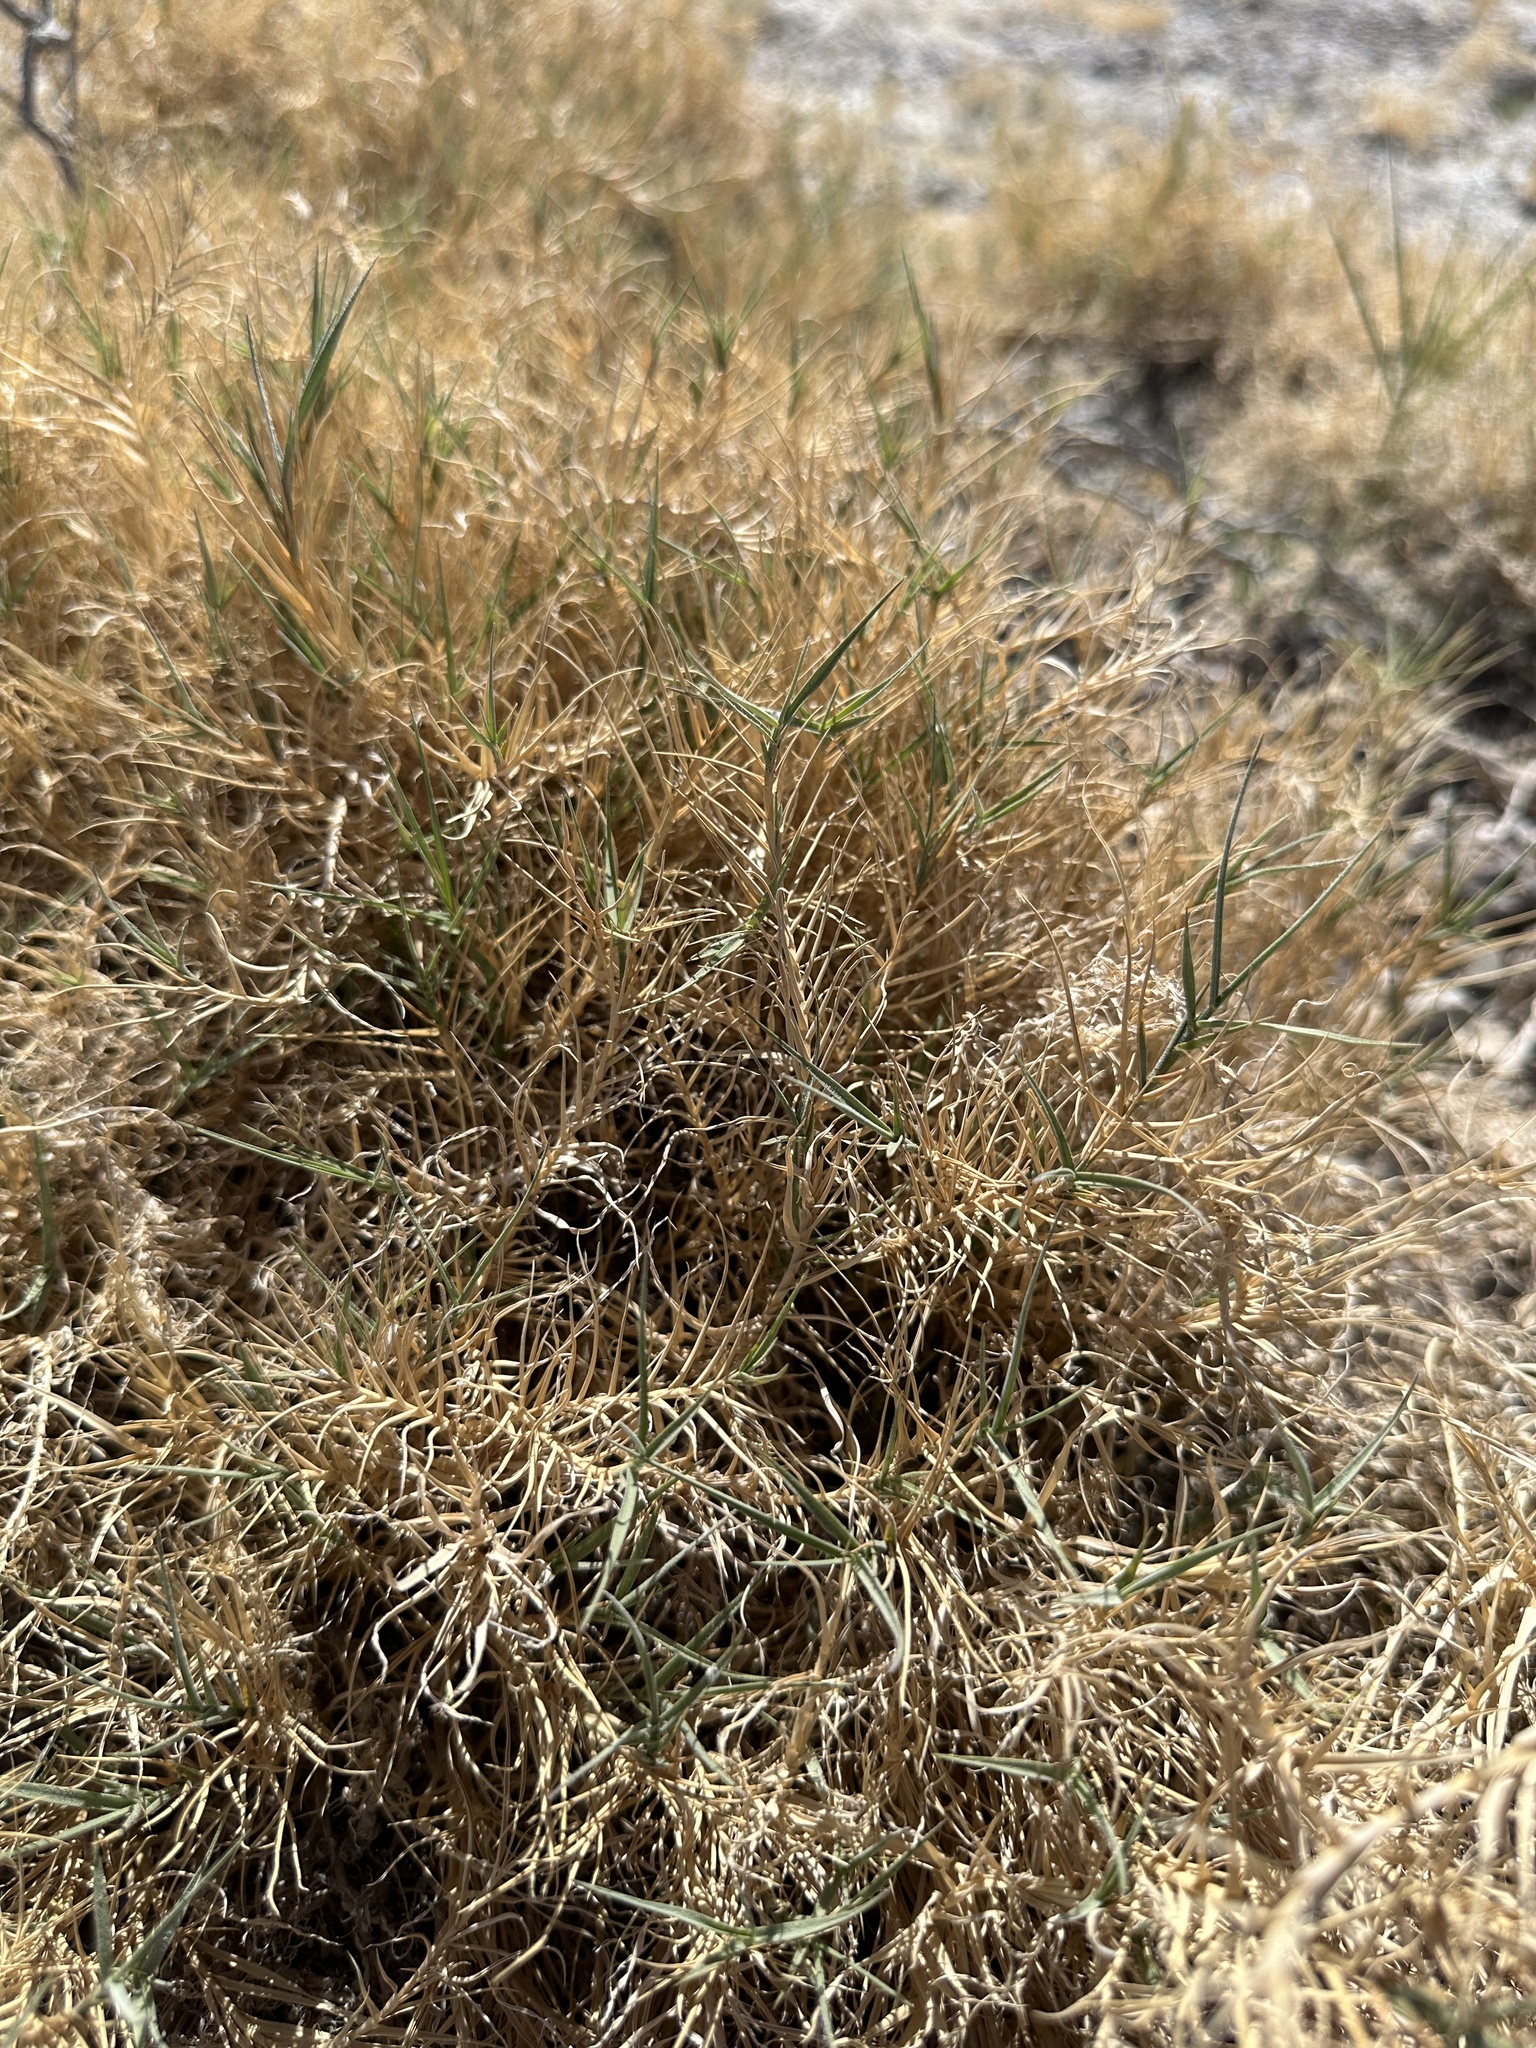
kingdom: Plantae
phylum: Tracheophyta
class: Liliopsida
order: Poales
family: Poaceae
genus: Distichlis
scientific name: Distichlis spicata
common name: Saltgrass
